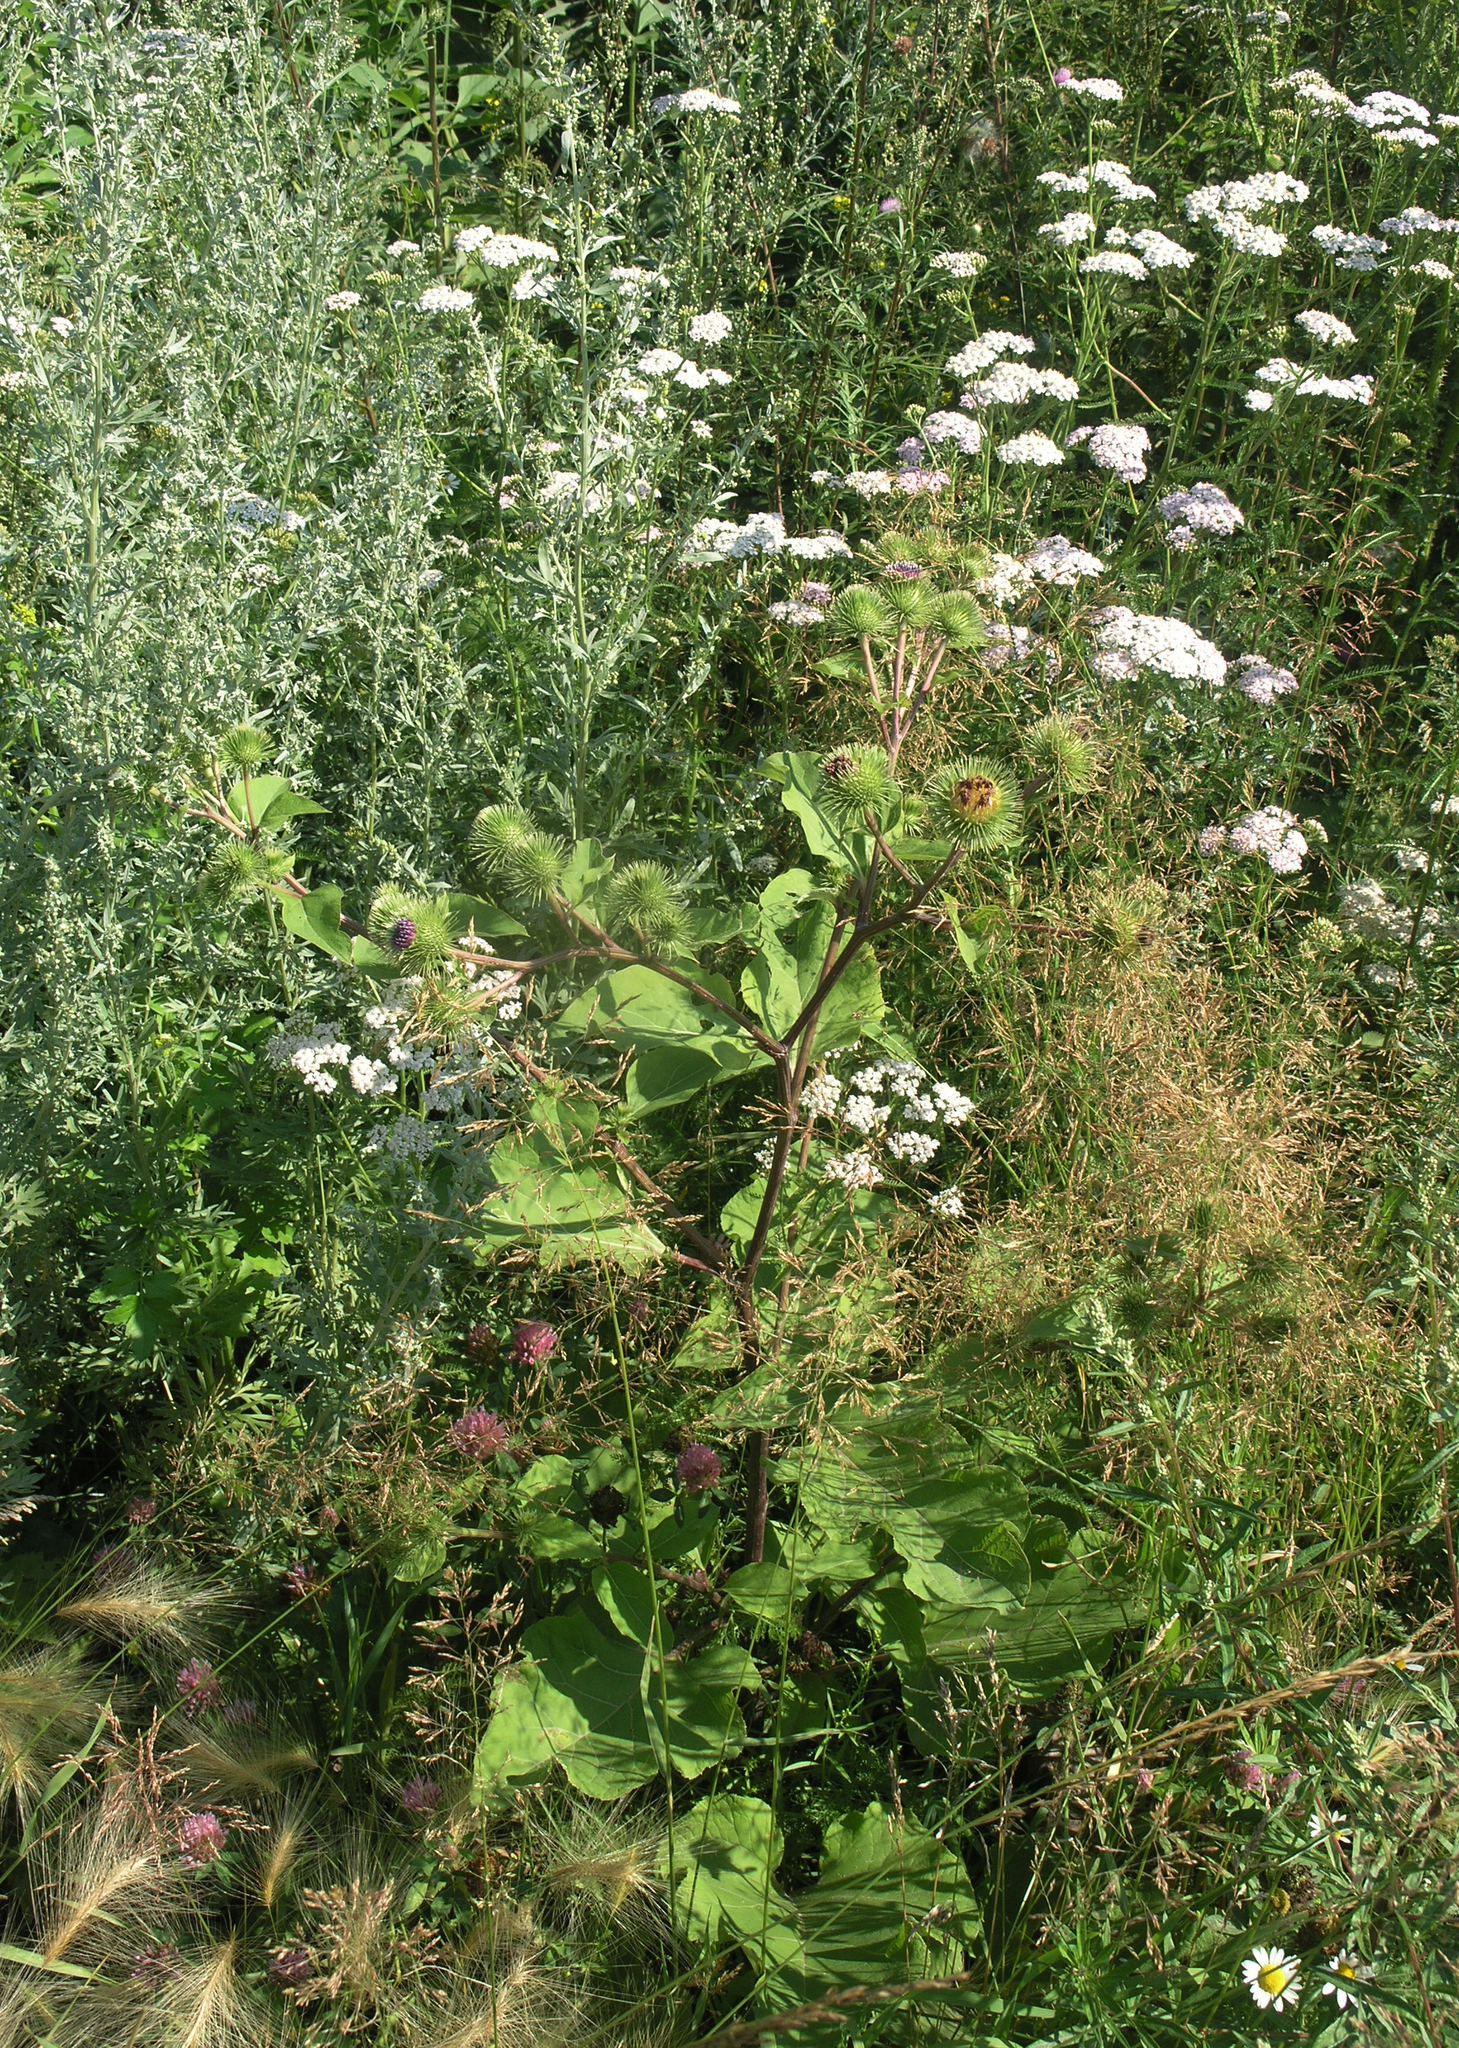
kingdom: Plantae
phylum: Tracheophyta
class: Magnoliopsida
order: Asterales
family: Asteraceae
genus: Arctium
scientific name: Arctium lappa
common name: Greater burdock
